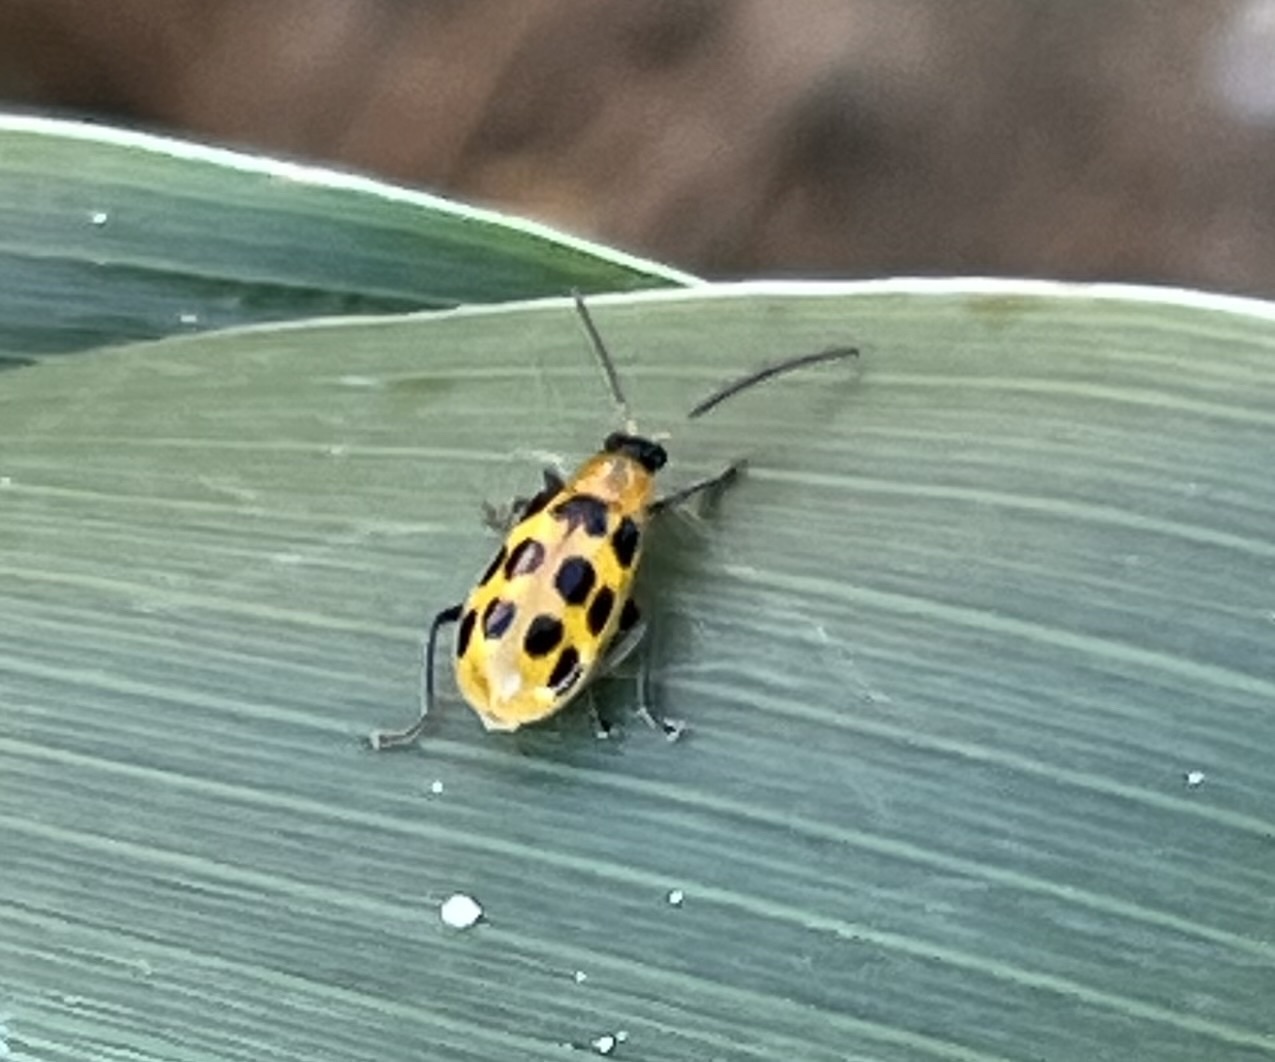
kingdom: Animalia
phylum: Arthropoda
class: Insecta
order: Coleoptera
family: Chrysomelidae
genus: Diabrotica
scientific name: Diabrotica undecimpunctata
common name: Spotted cucumber beetle
